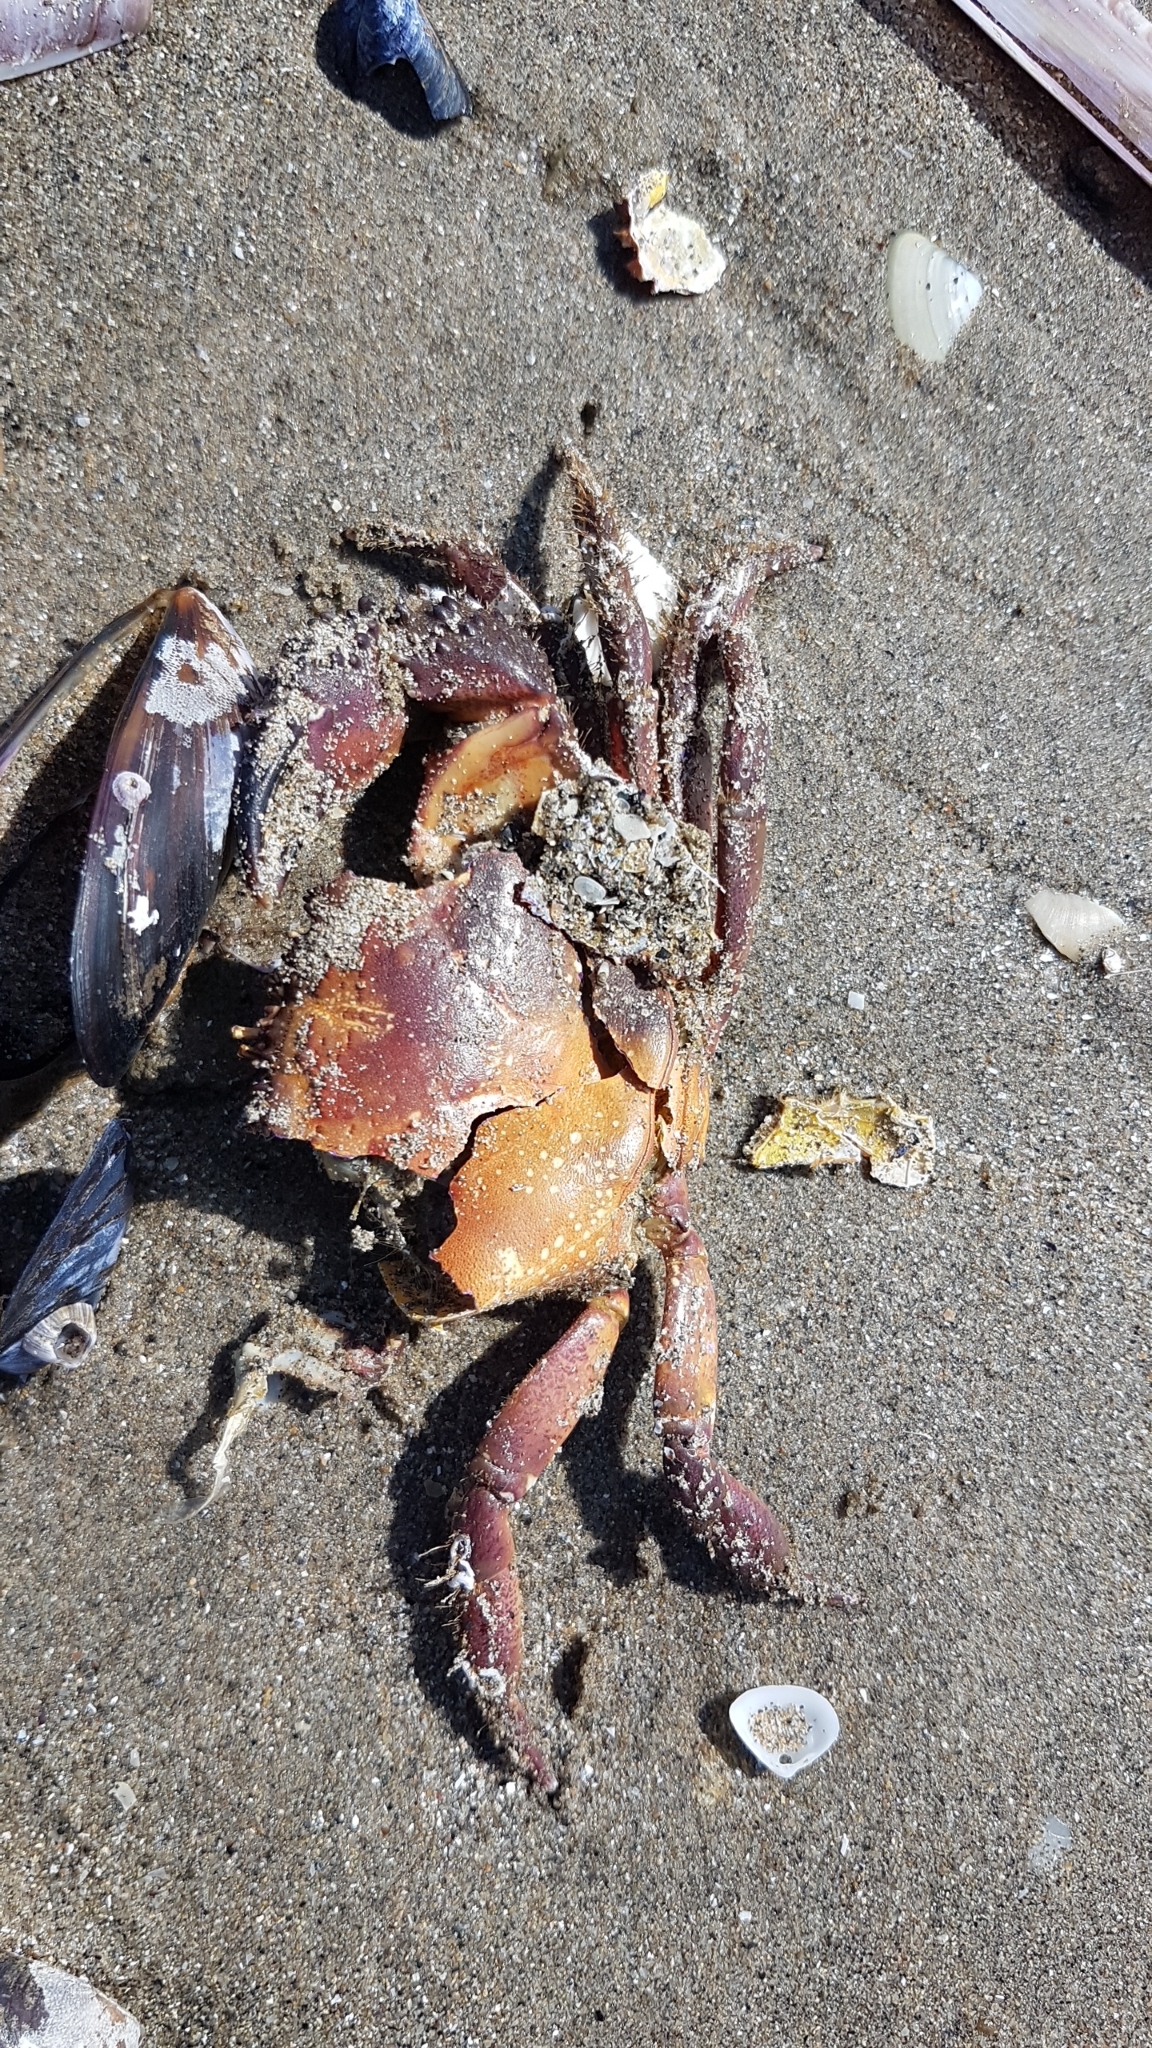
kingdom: Animalia
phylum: Arthropoda
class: Malacostraca
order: Decapoda
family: Eriphiidae
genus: Eriphia
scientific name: Eriphia verrucosa
